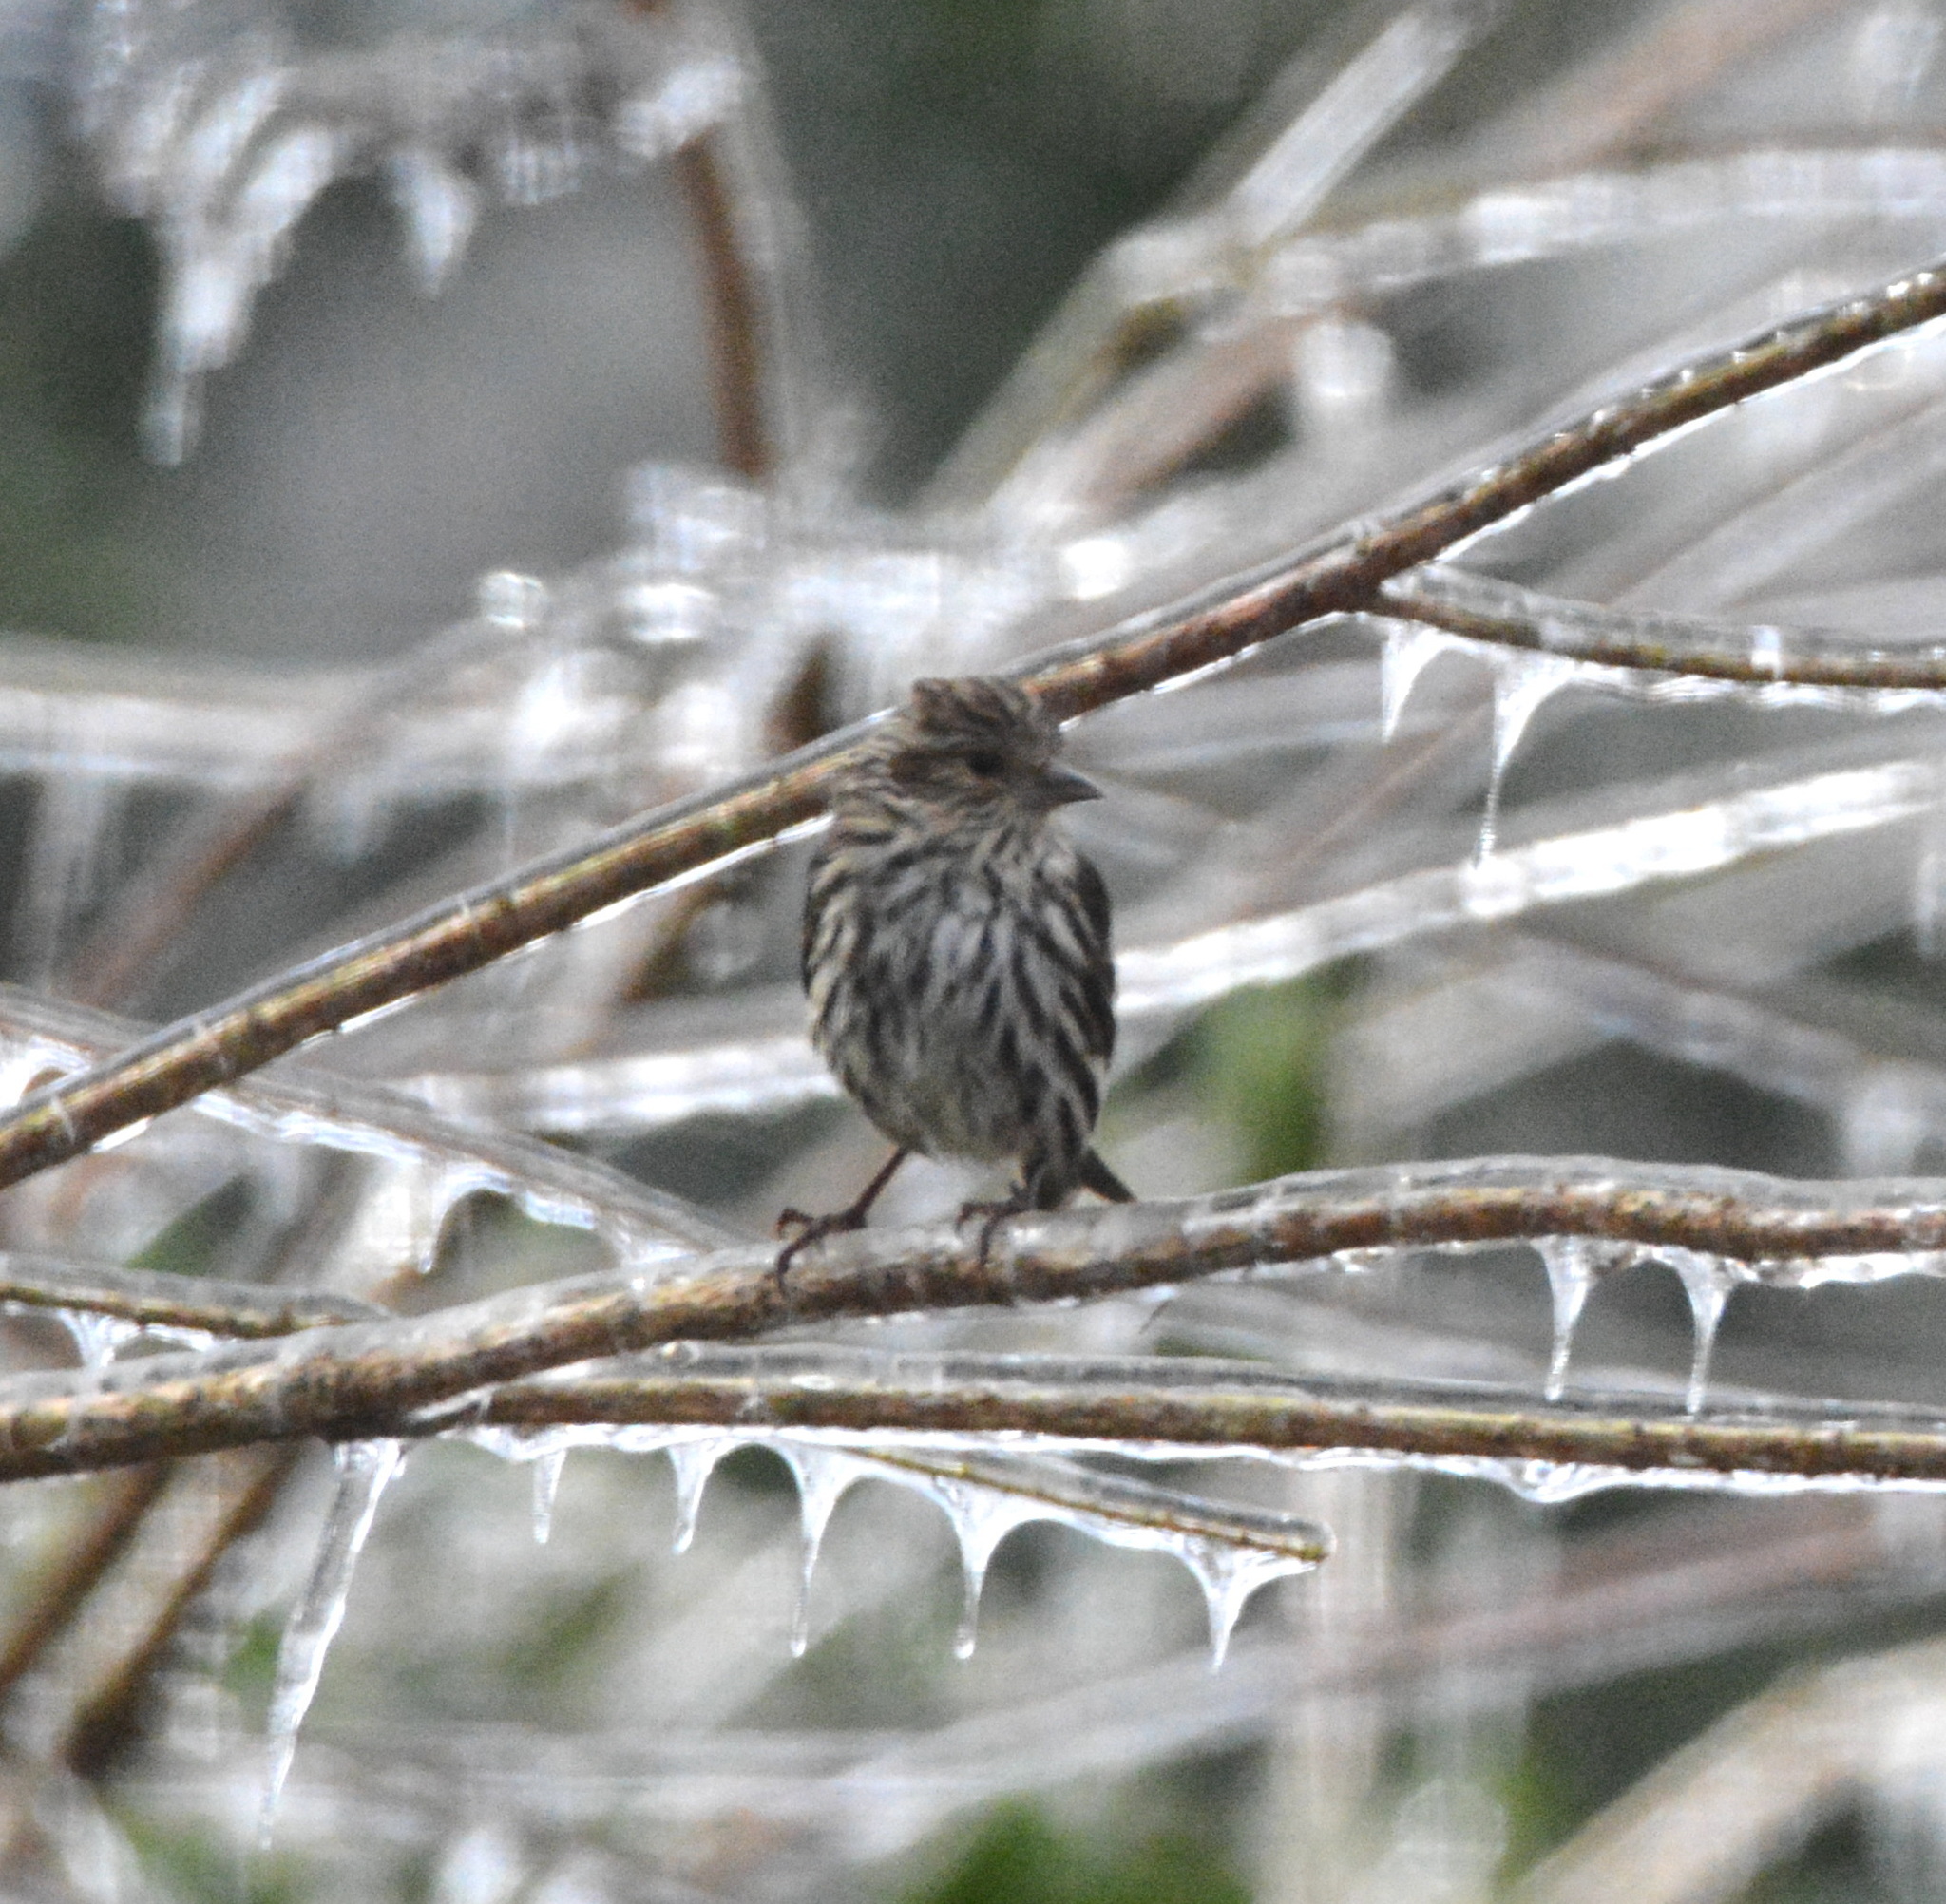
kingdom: Animalia
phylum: Chordata
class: Aves
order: Passeriformes
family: Fringillidae
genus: Spinus
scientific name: Spinus pinus
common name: Pine siskin
